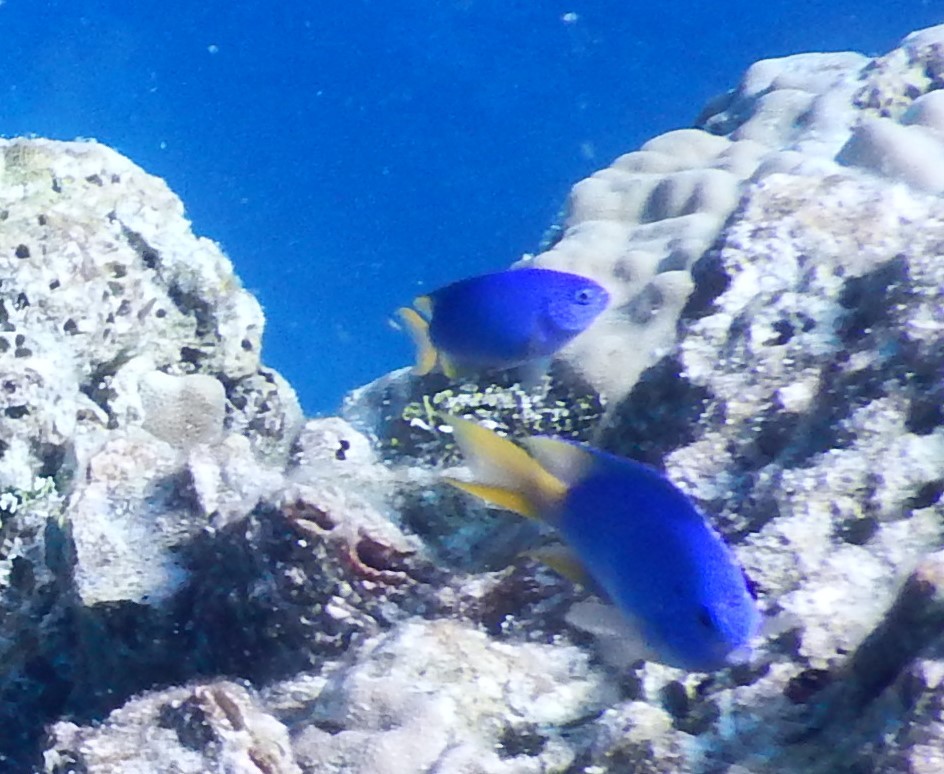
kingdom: Animalia
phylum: Chordata
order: Perciformes
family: Pomacentridae
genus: Pomacentrus
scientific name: Pomacentrus pavo
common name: Sapphire damsel
